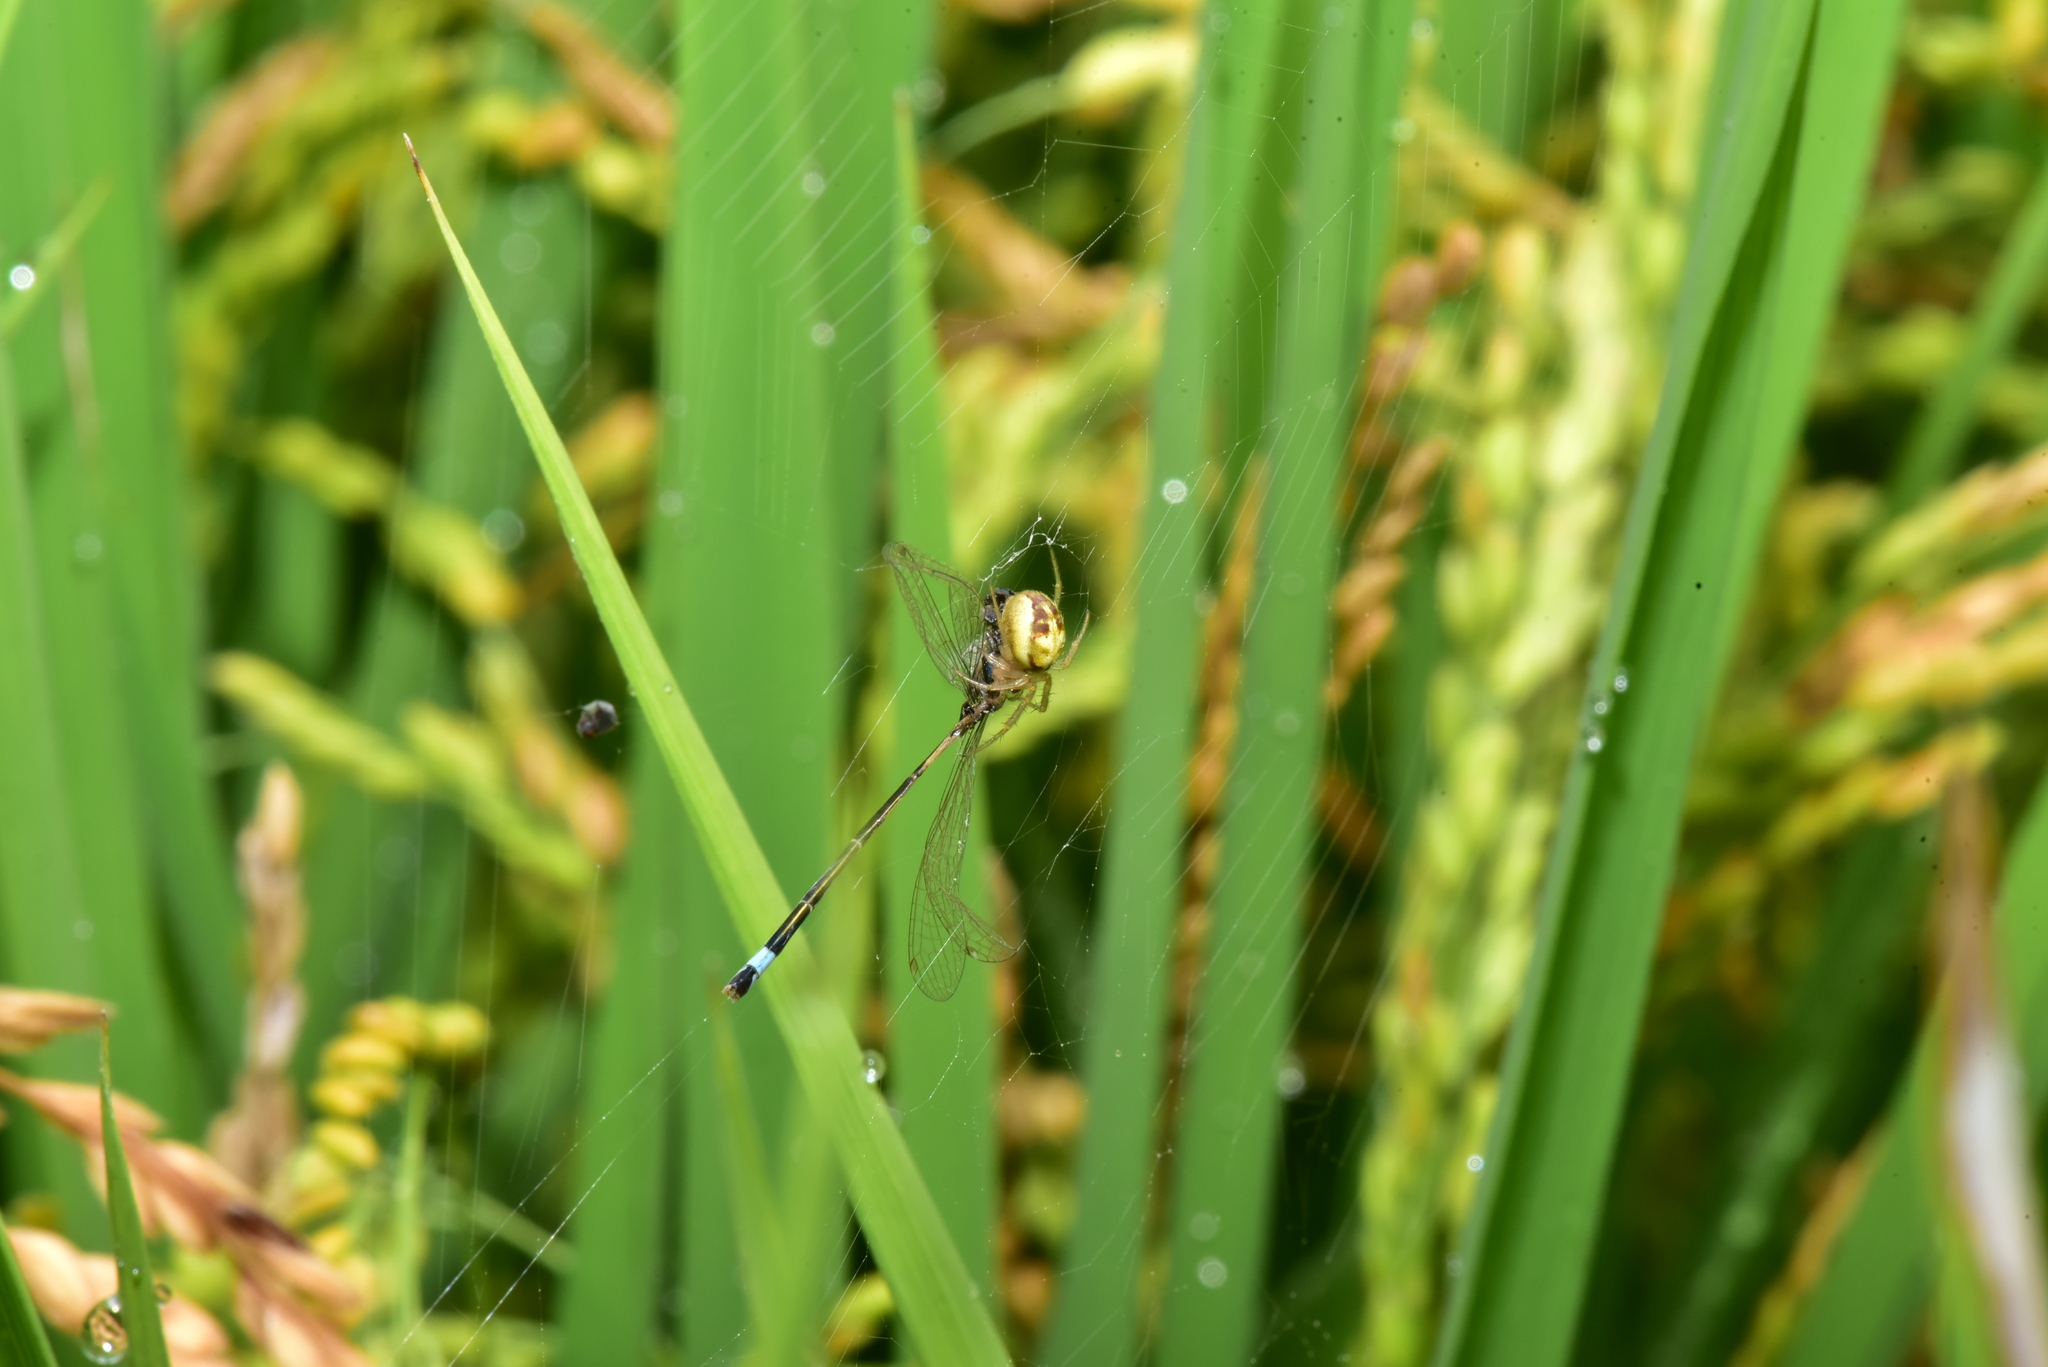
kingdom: Animalia
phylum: Arthropoda
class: Arachnida
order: Araneae
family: Araneidae
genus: Neoscona
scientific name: Neoscona inusta
